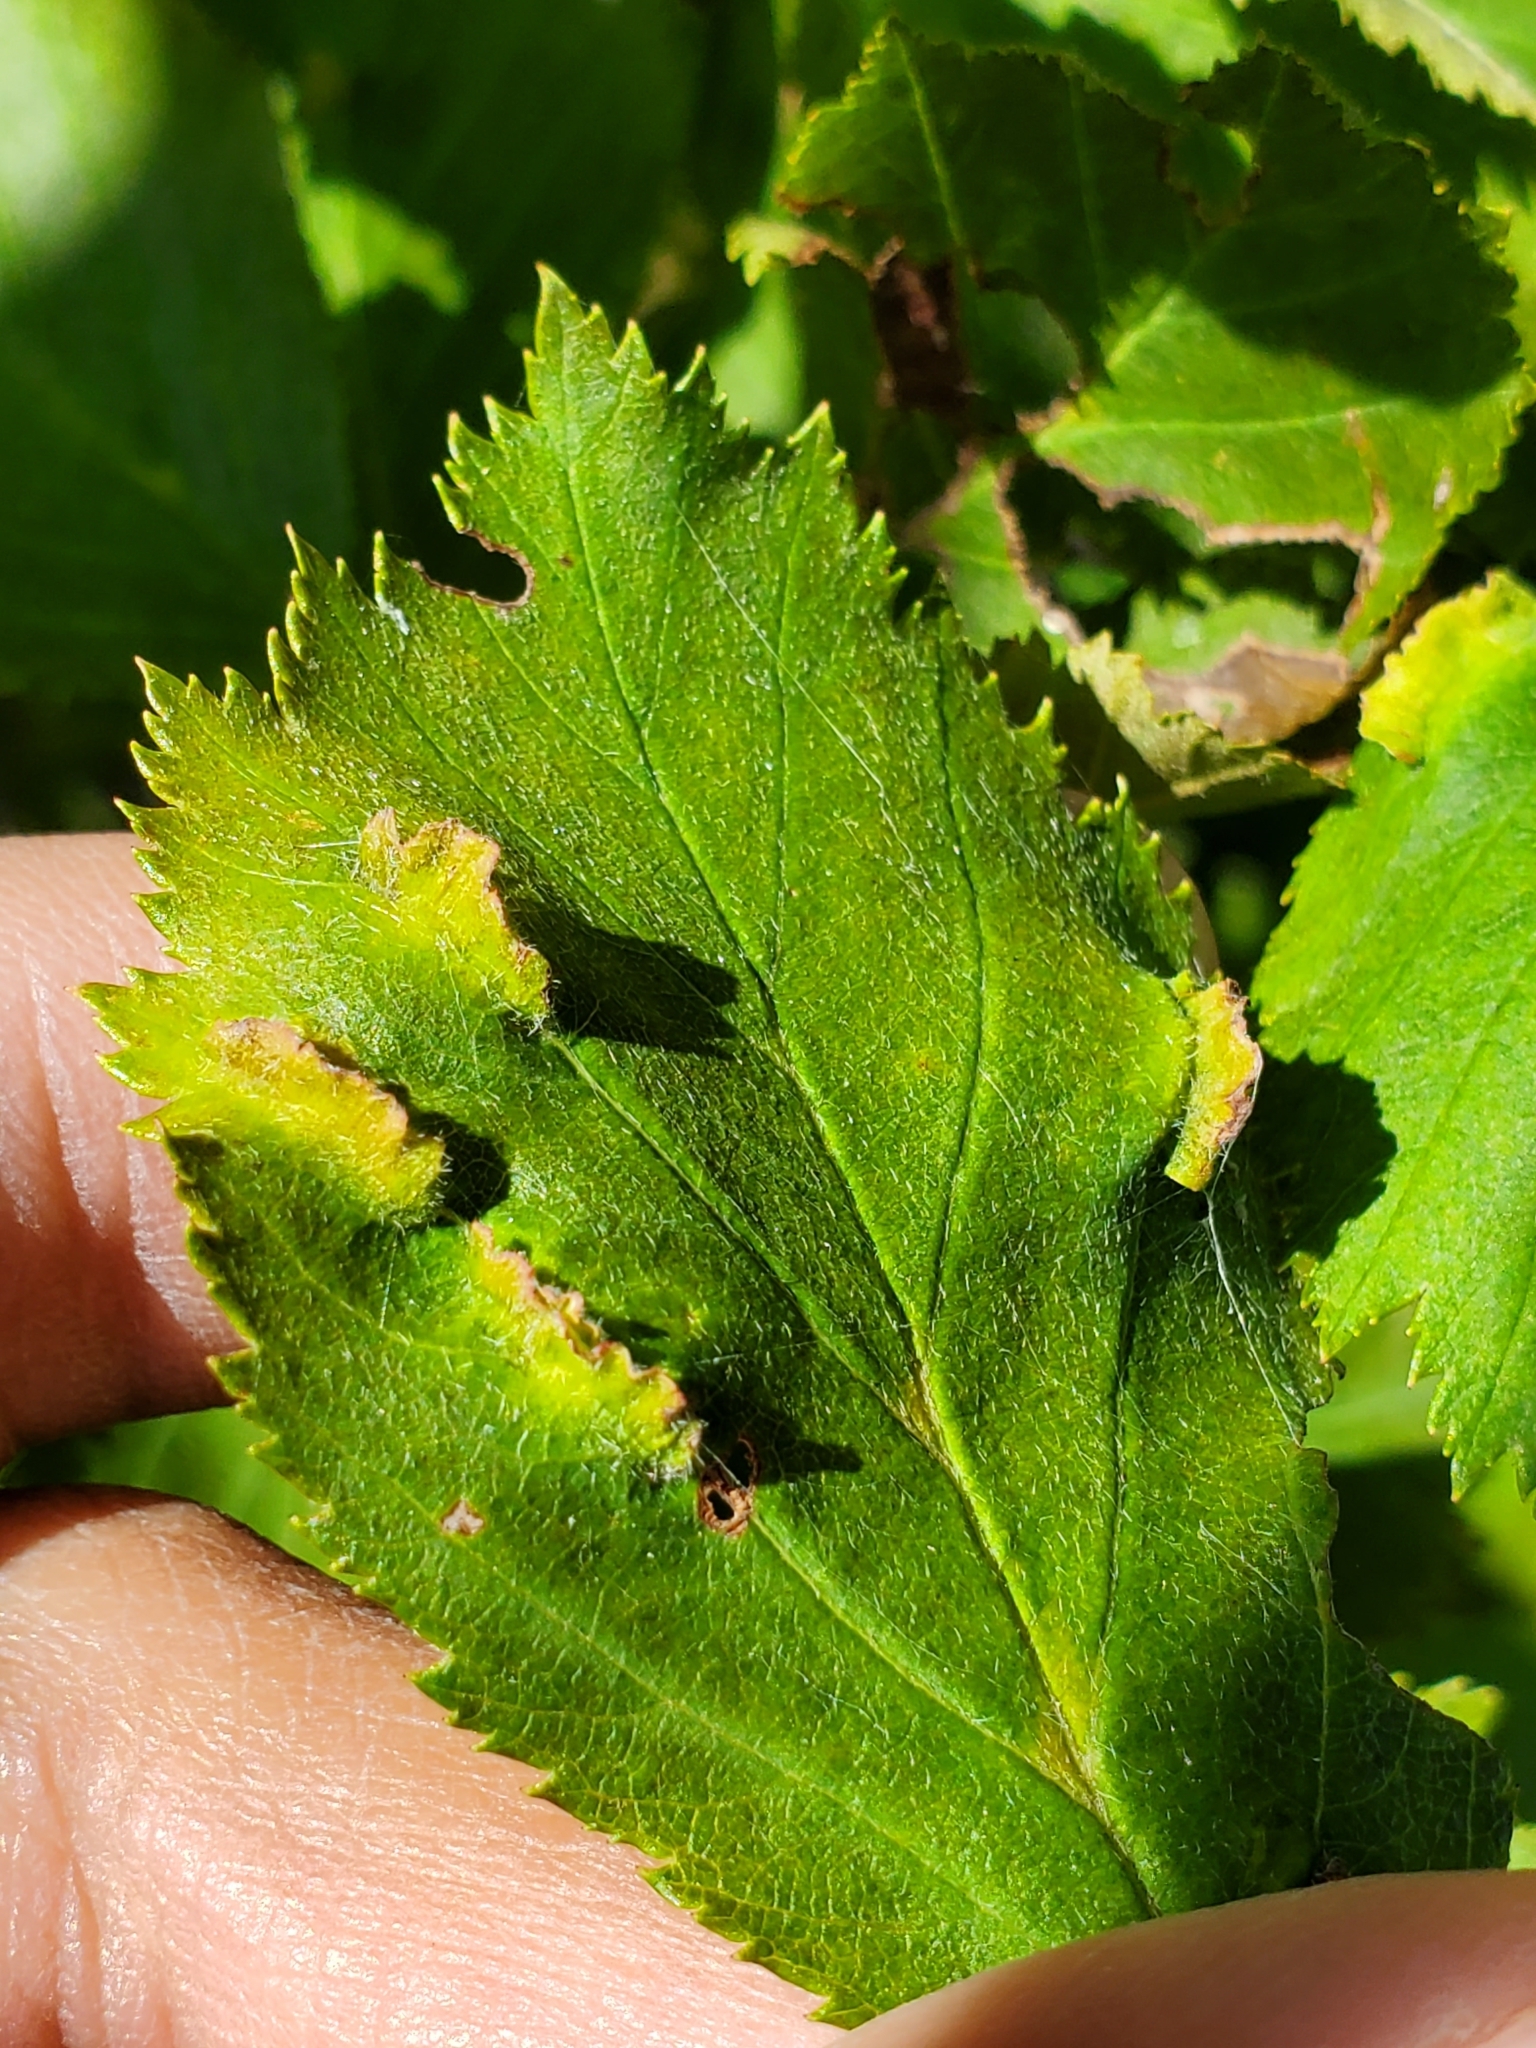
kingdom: Animalia
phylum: Arthropoda
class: Insecta
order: Diptera
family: Cecidomyiidae
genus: Blaesodiplosis
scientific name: Blaesodiplosis crataegifolia
